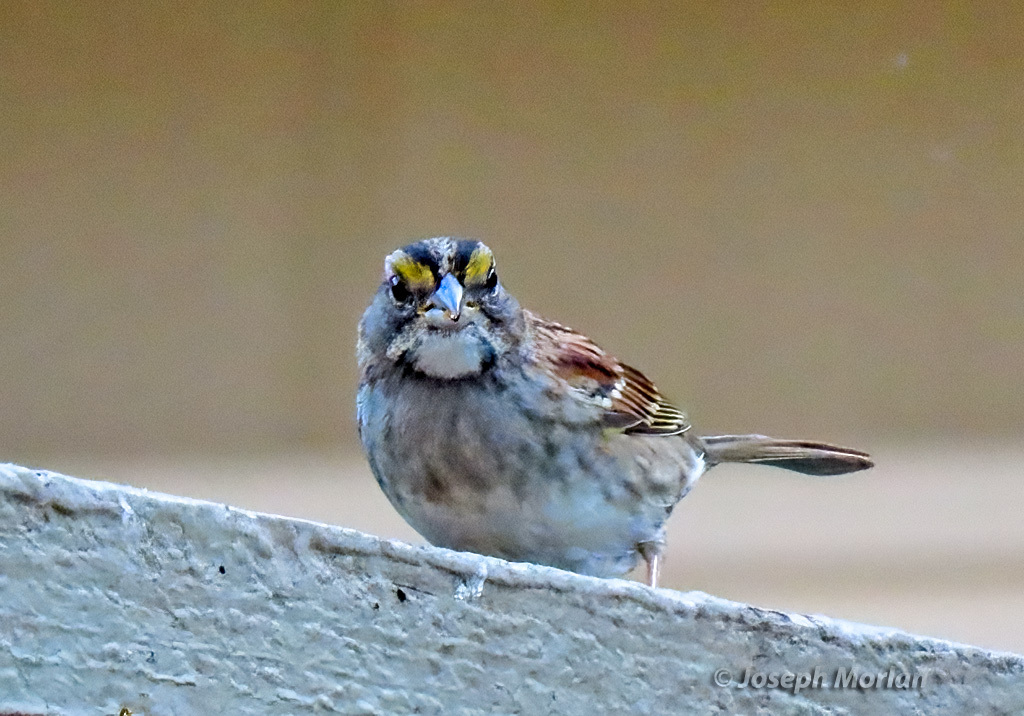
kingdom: Animalia
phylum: Chordata
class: Aves
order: Passeriformes
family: Passerellidae
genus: Zonotrichia
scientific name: Zonotrichia albicollis
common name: White-throated sparrow
